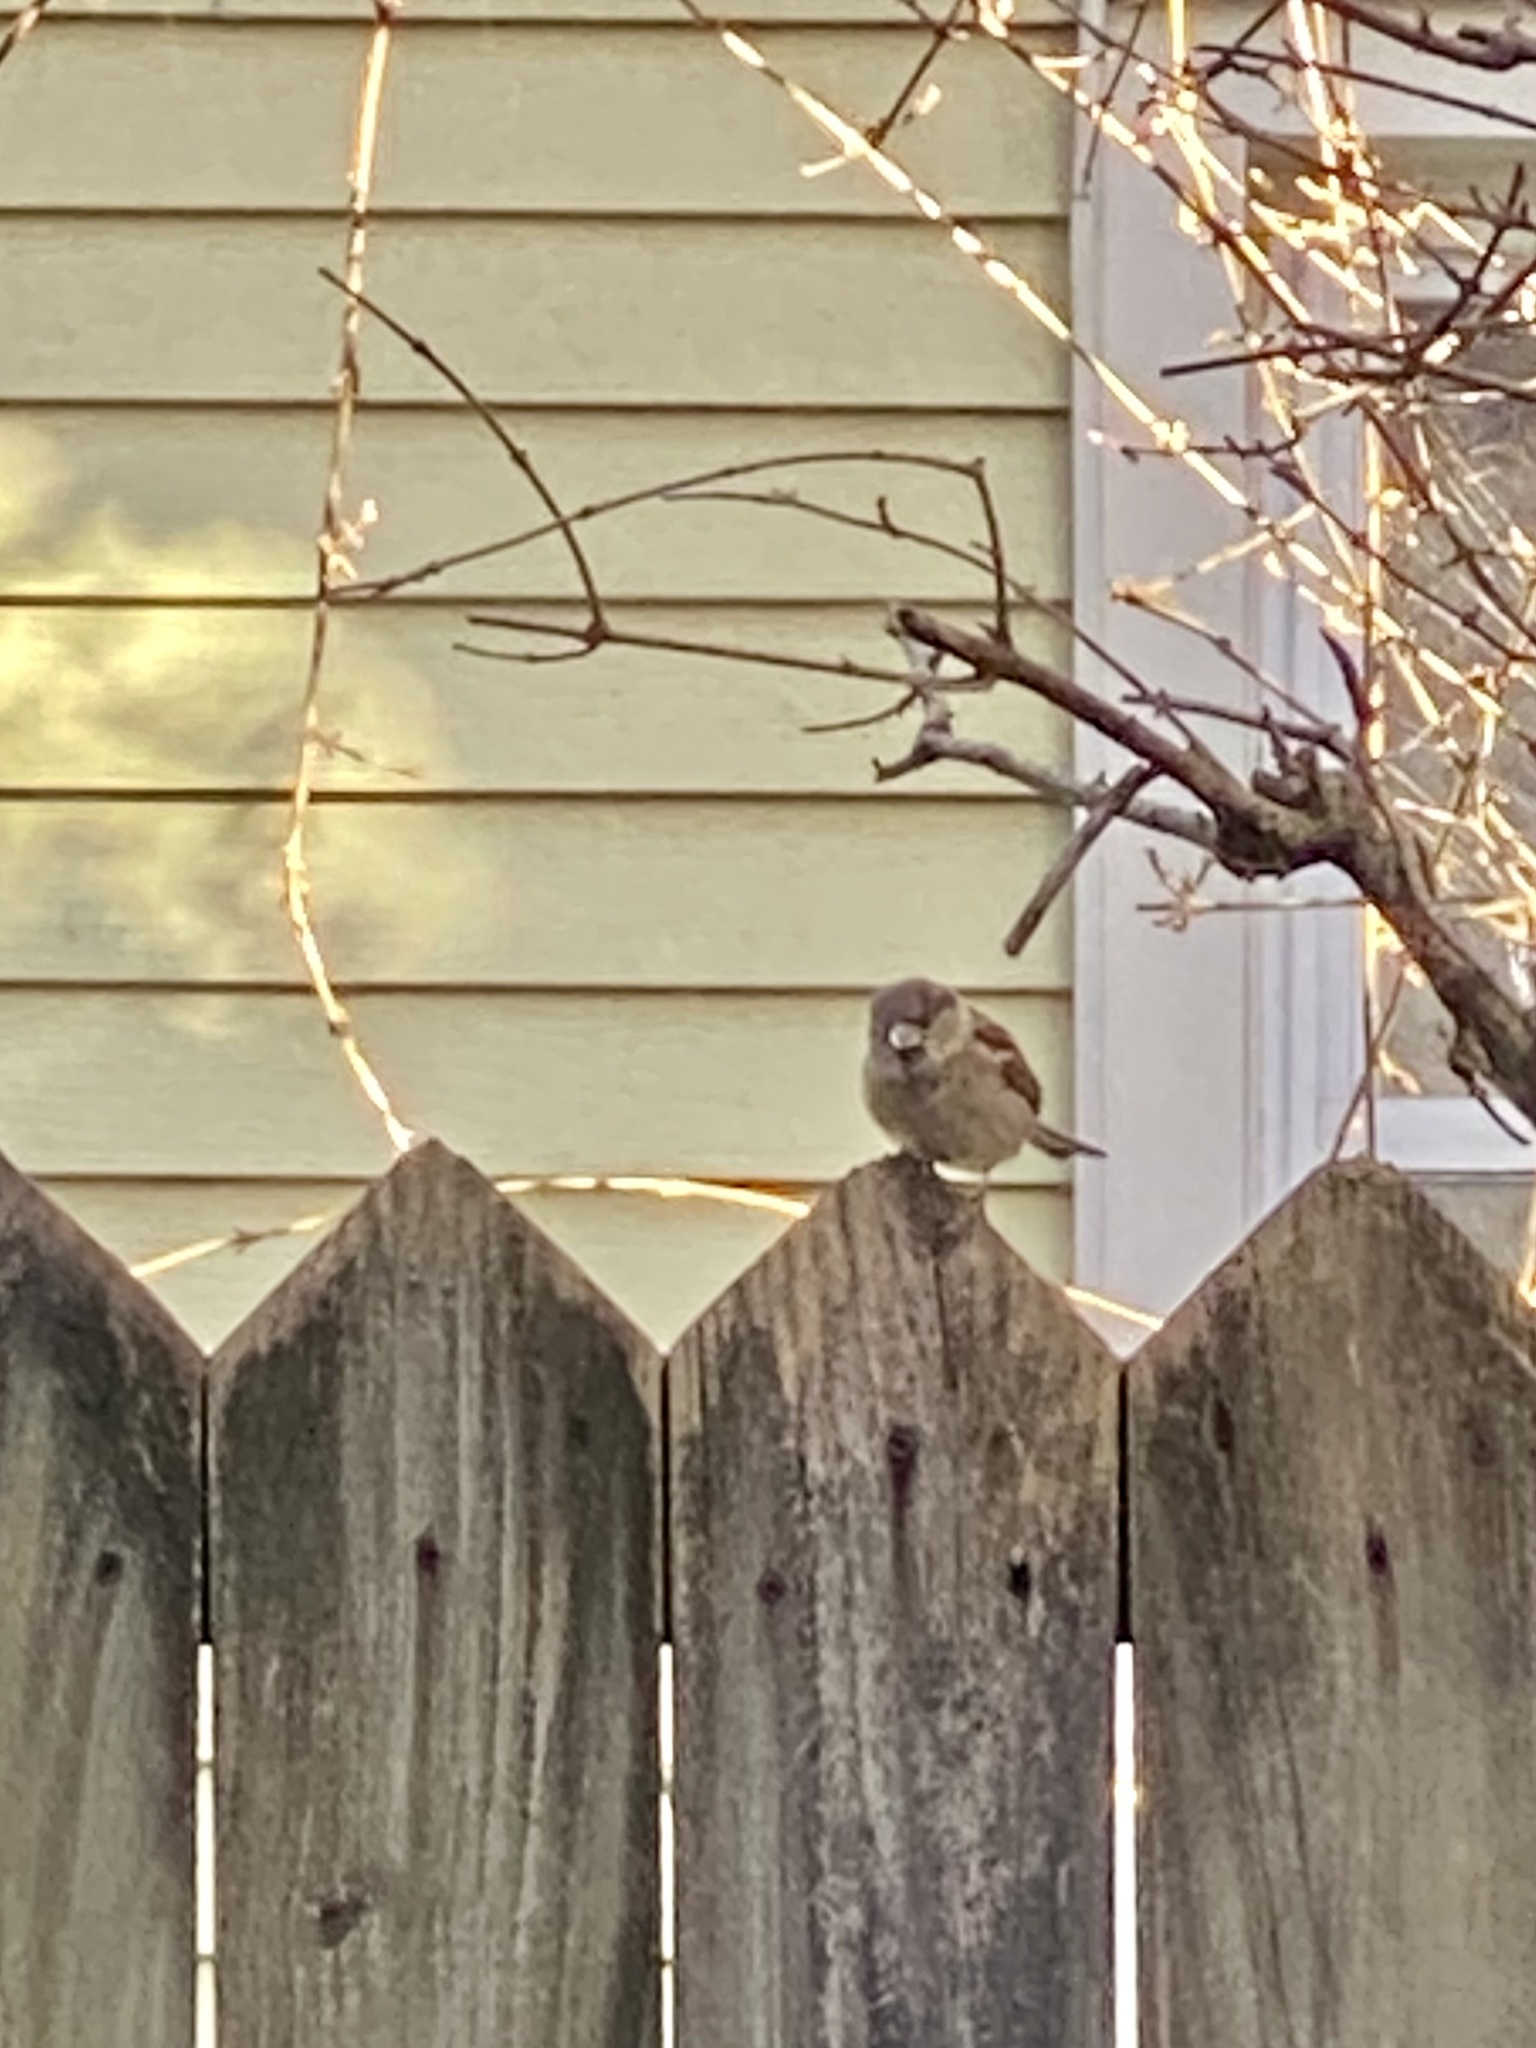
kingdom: Animalia
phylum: Chordata
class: Aves
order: Passeriformes
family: Passeridae
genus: Passer
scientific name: Passer domesticus
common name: House sparrow
